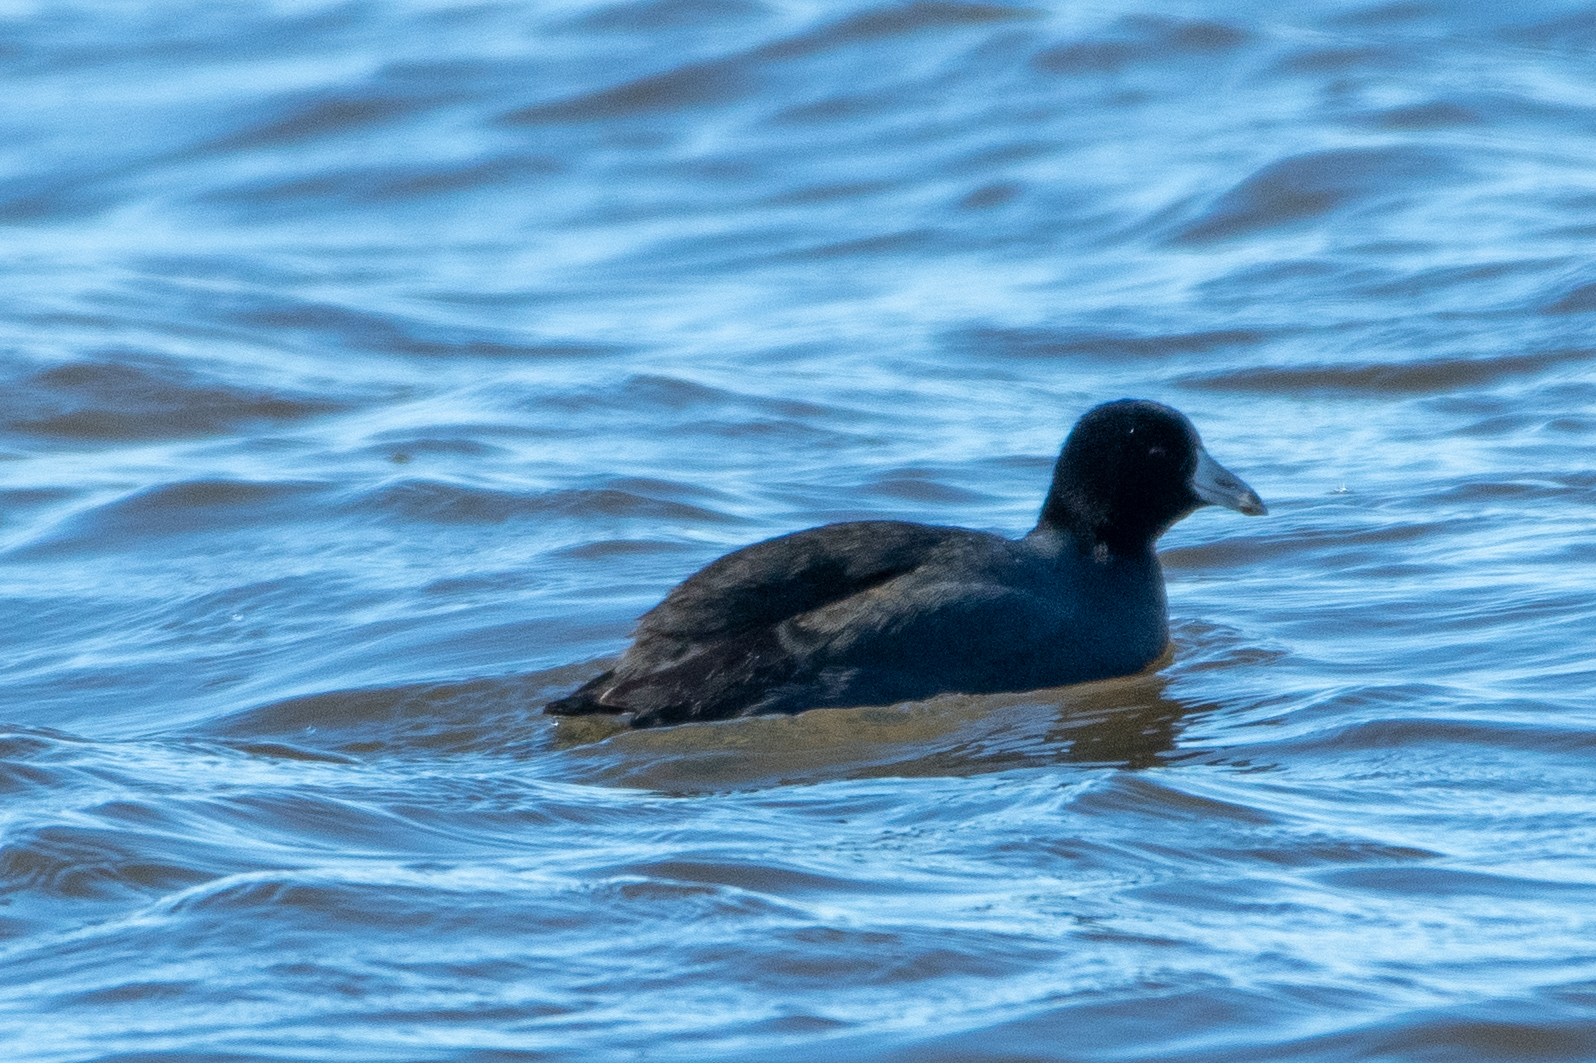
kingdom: Animalia
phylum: Chordata
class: Aves
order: Gruiformes
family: Rallidae
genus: Fulica
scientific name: Fulica americana
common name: American coot
